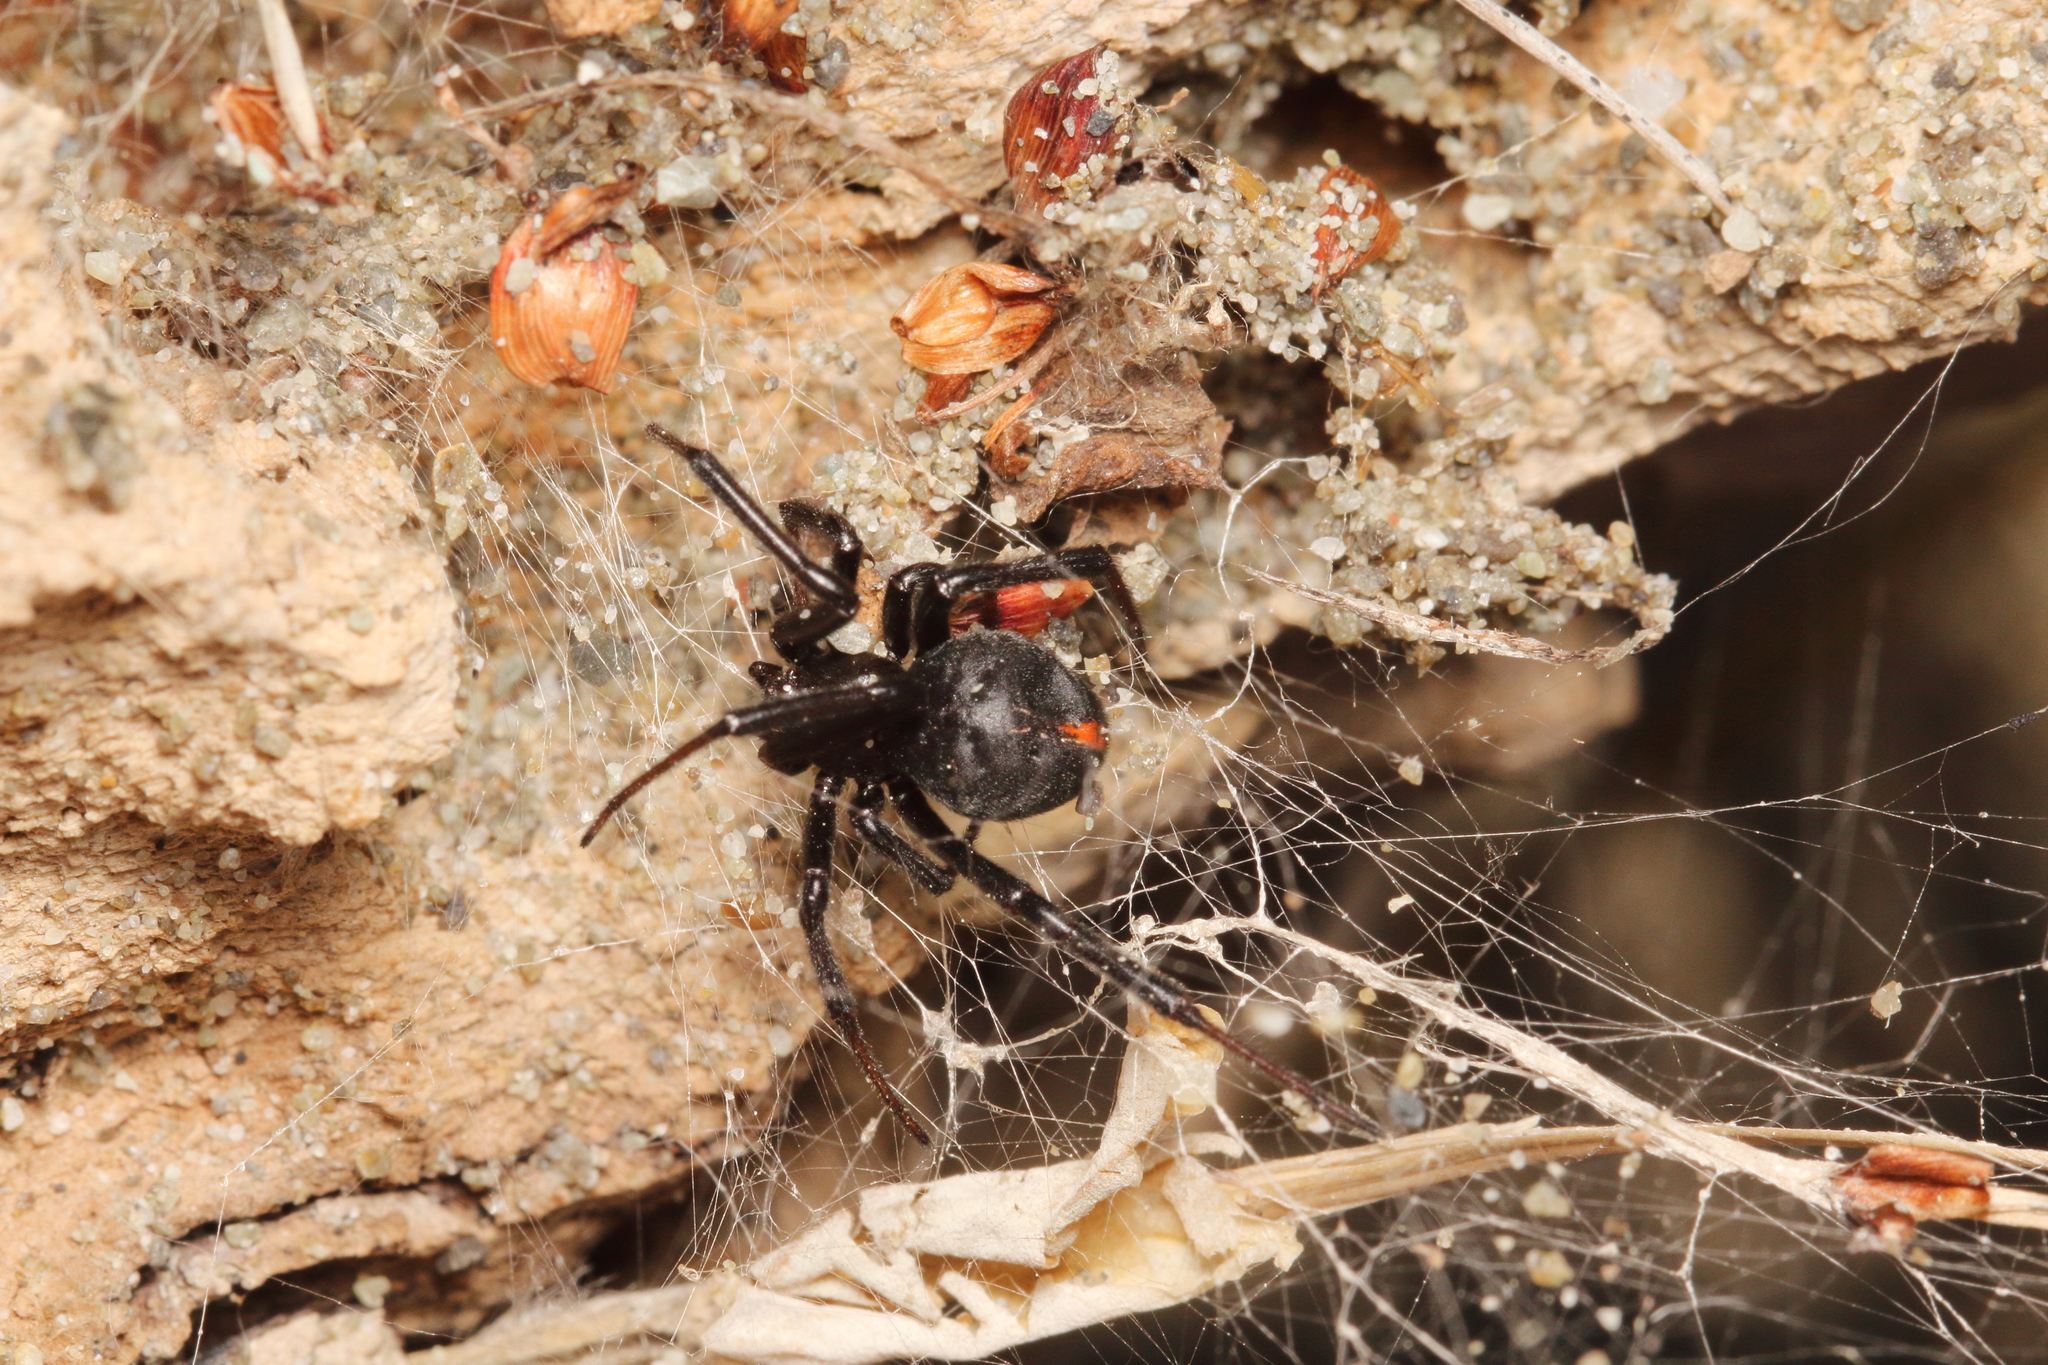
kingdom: Animalia
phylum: Arthropoda
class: Arachnida
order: Araneae
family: Theridiidae
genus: Latrodectus
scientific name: Latrodectus katipo
